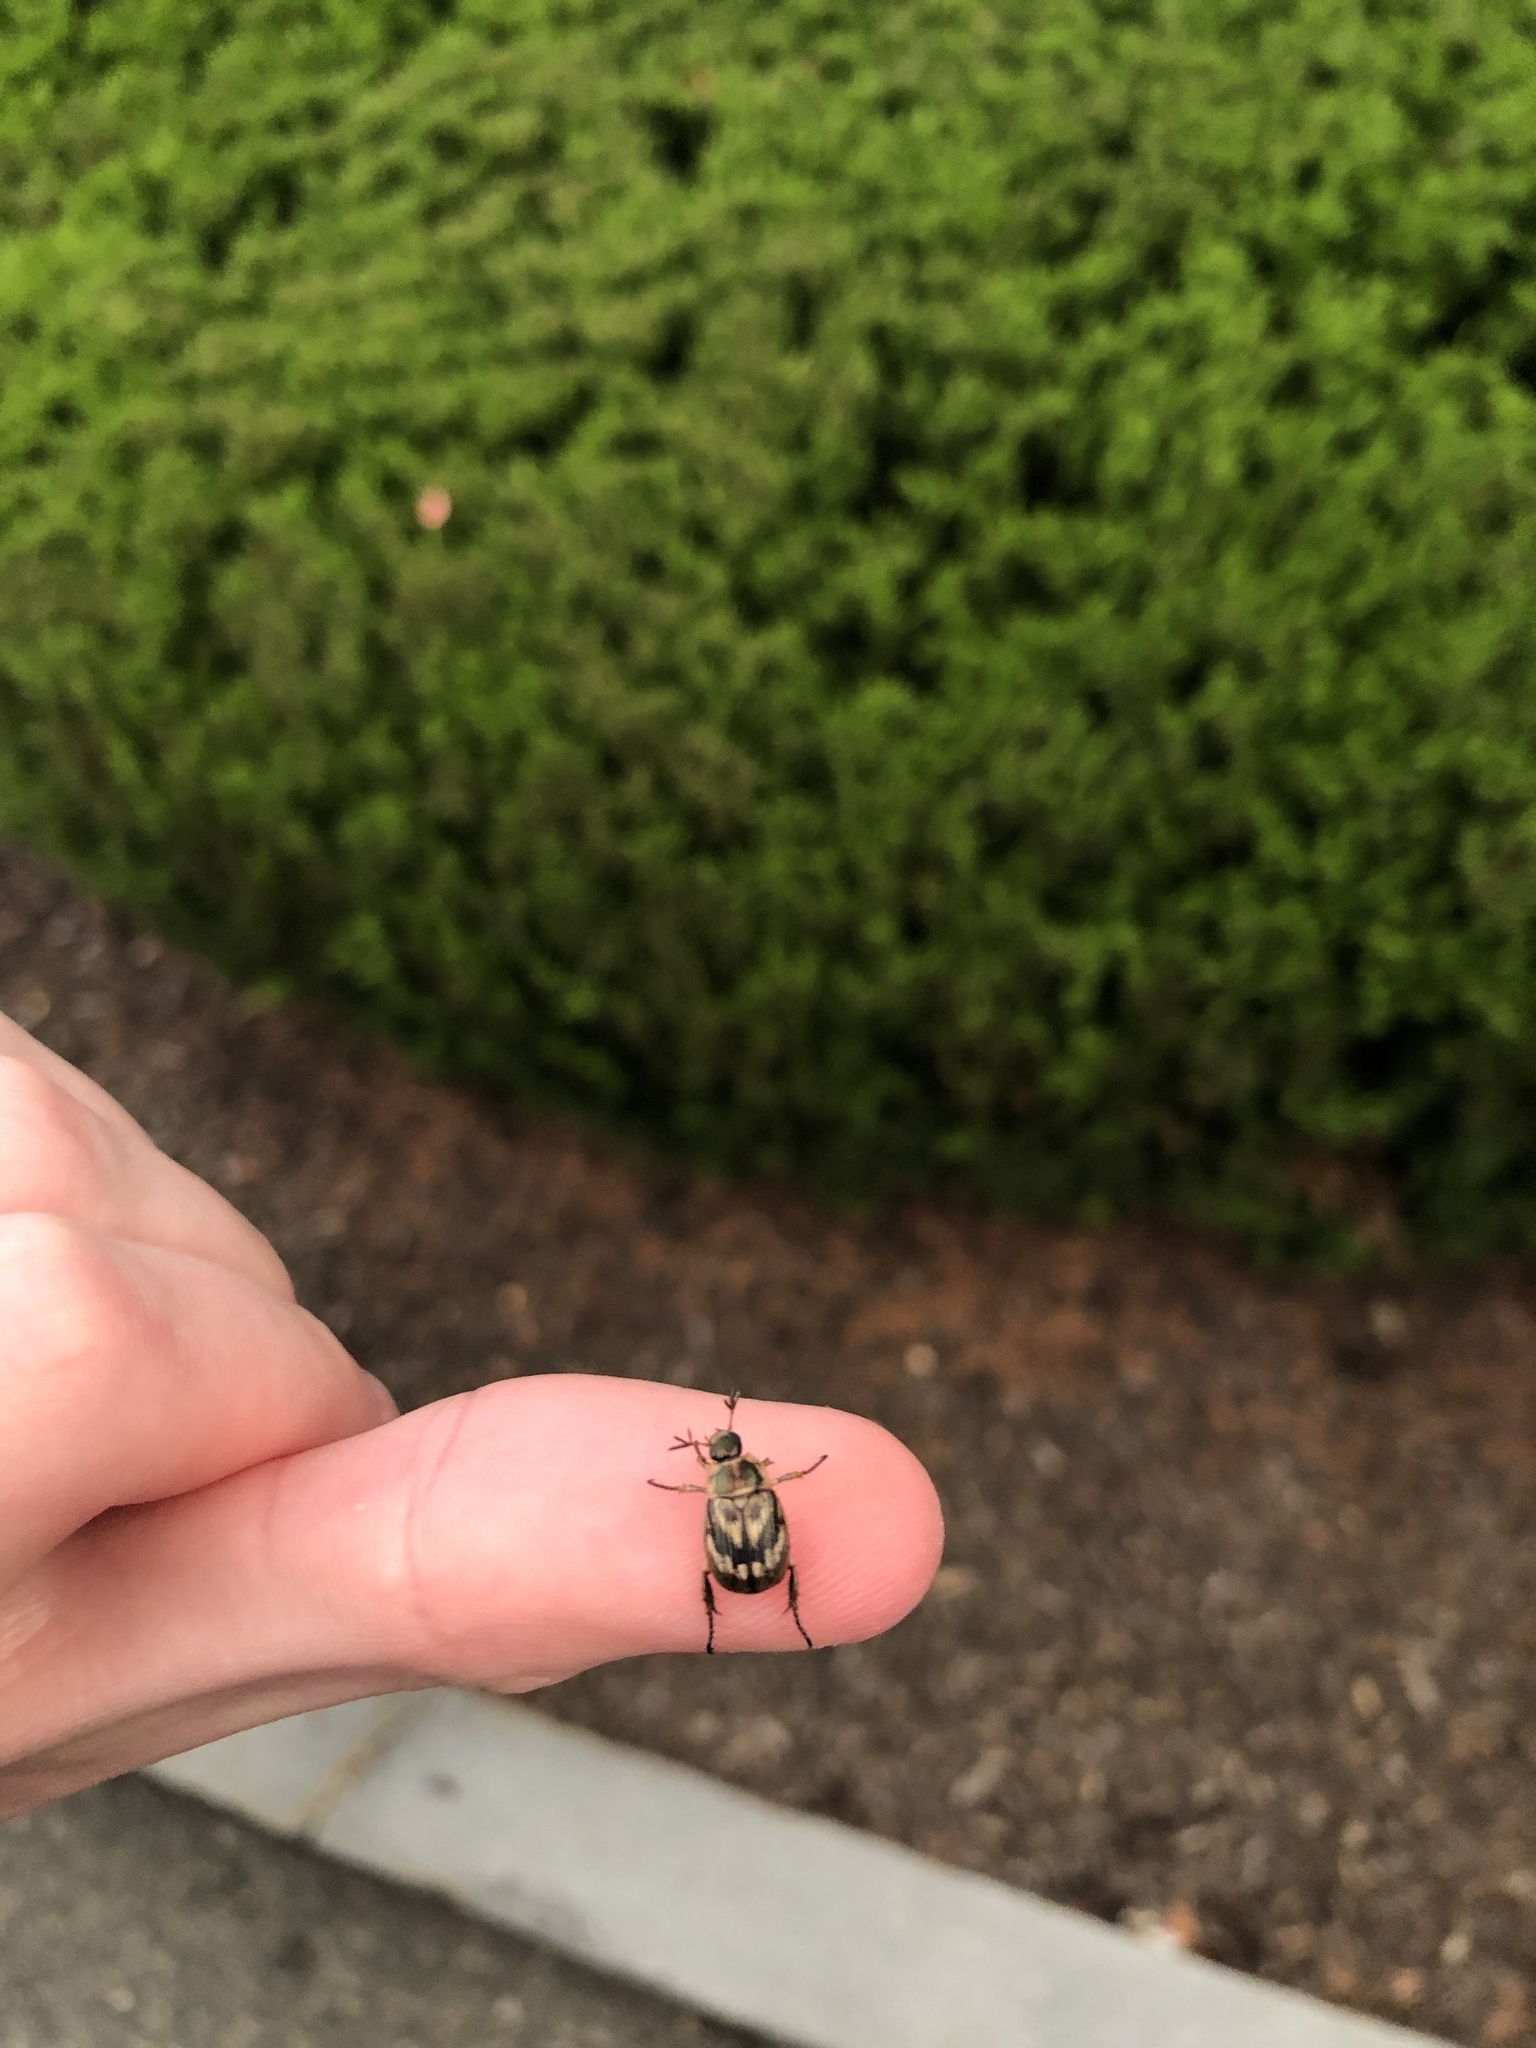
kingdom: Animalia
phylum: Arthropoda
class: Insecta
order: Coleoptera
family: Scarabaeidae
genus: Exomala
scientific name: Exomala orientalis
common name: Oriental beetle
